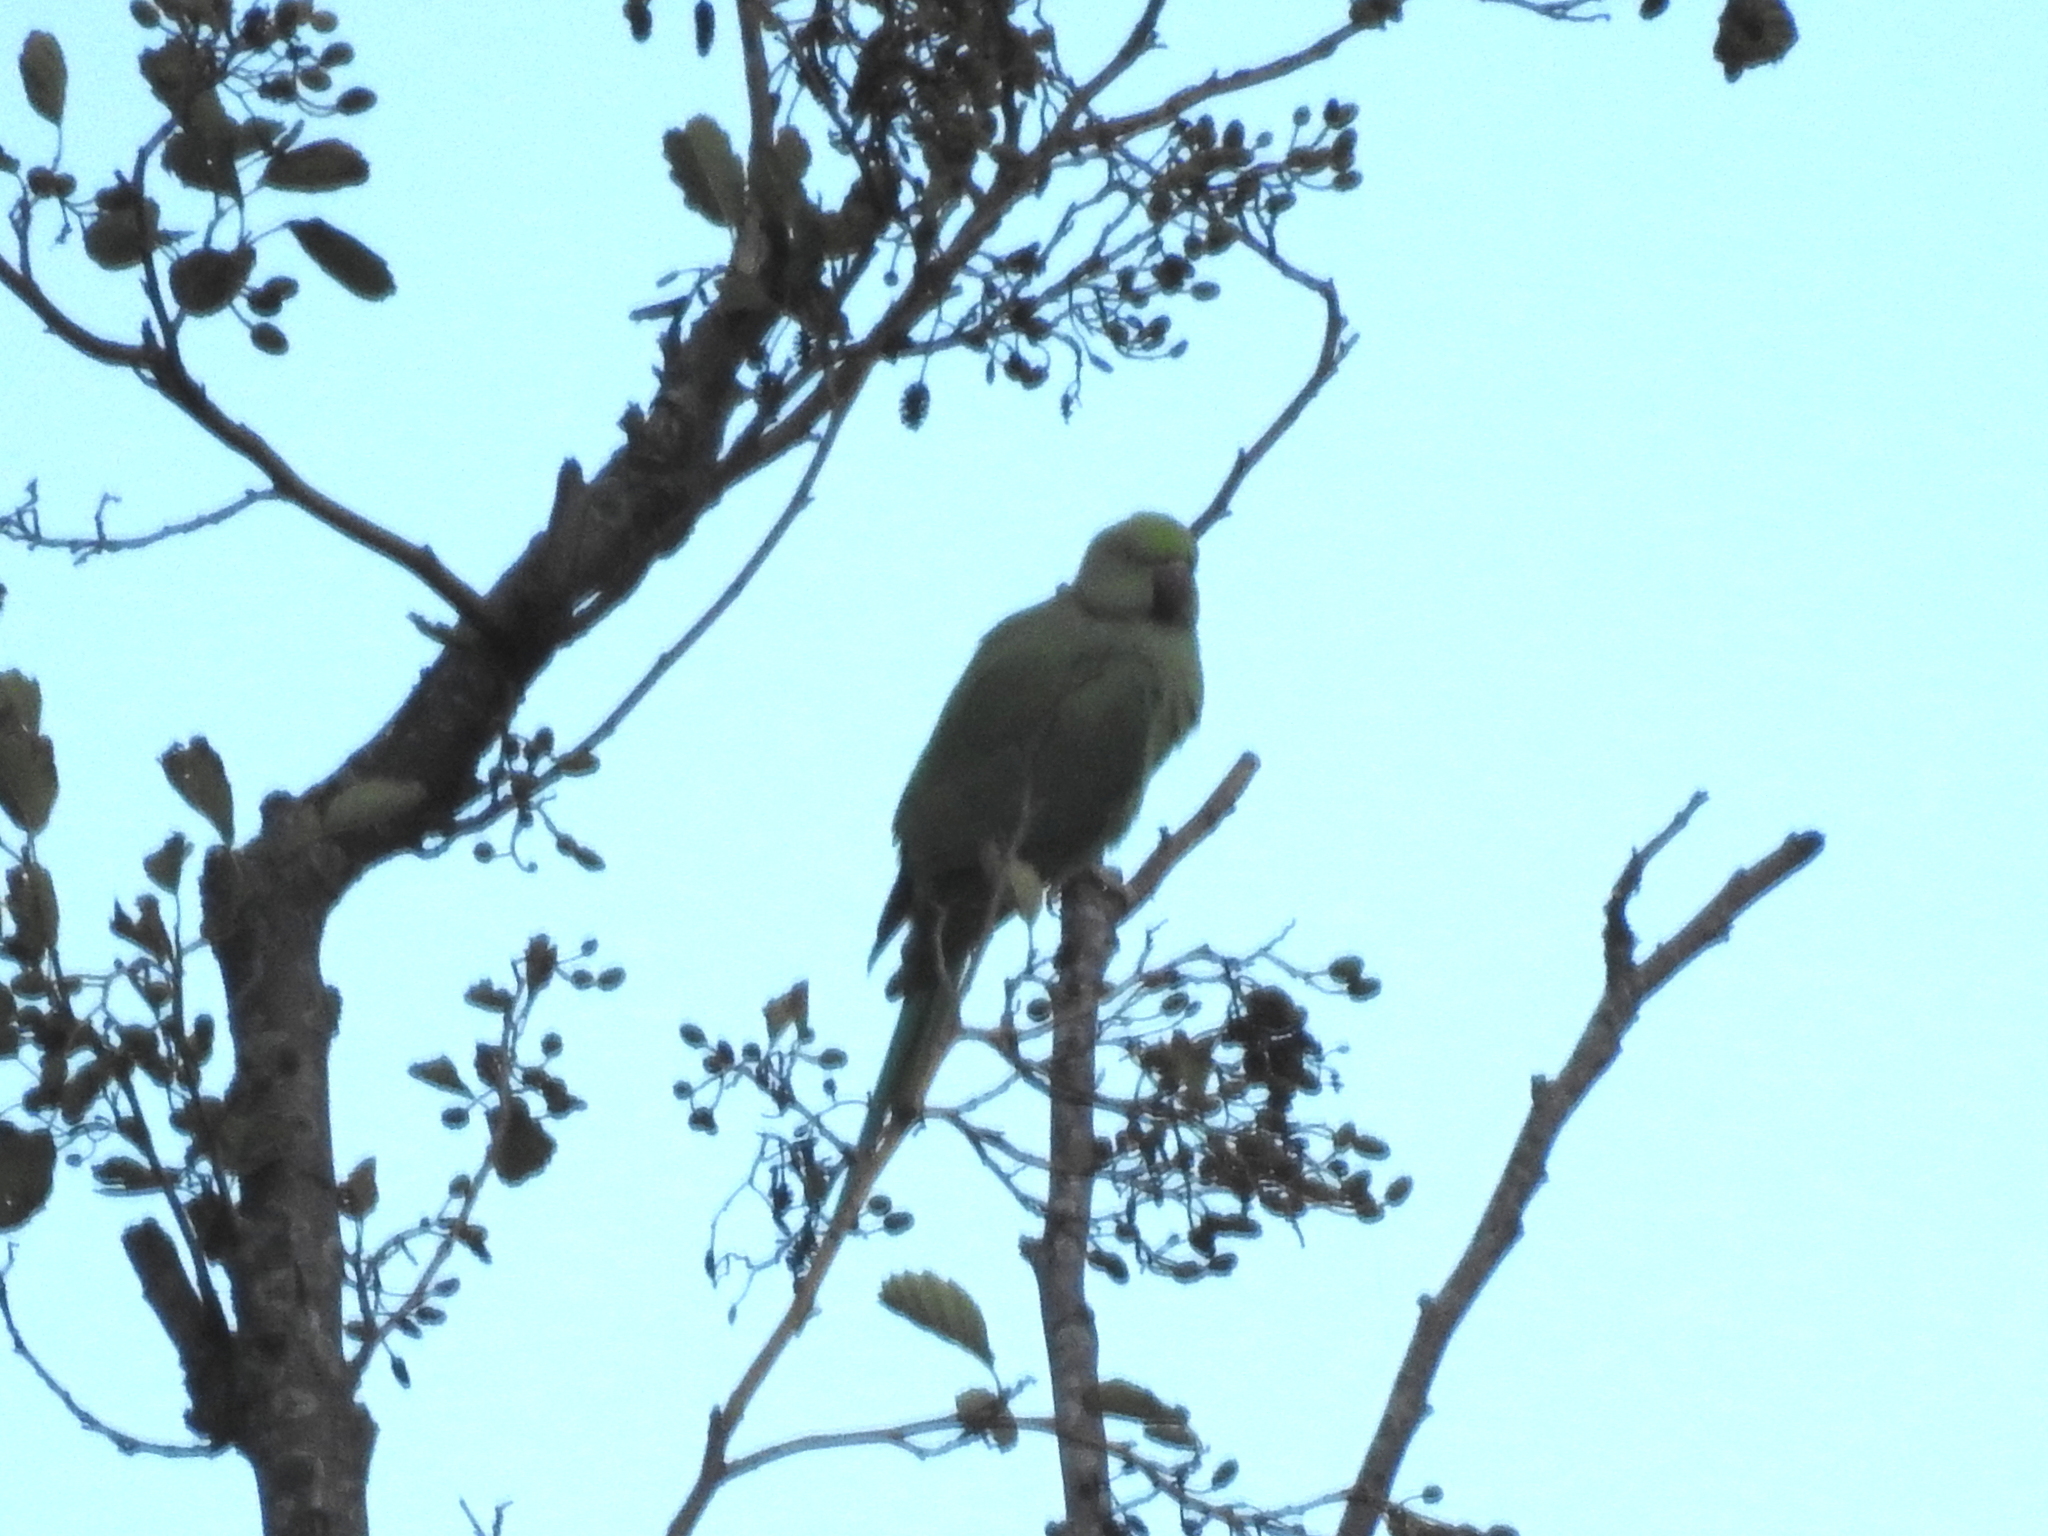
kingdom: Animalia
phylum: Chordata
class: Aves
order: Psittaciformes
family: Psittacidae
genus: Psittacula
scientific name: Psittacula krameri
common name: Rose-ringed parakeet
